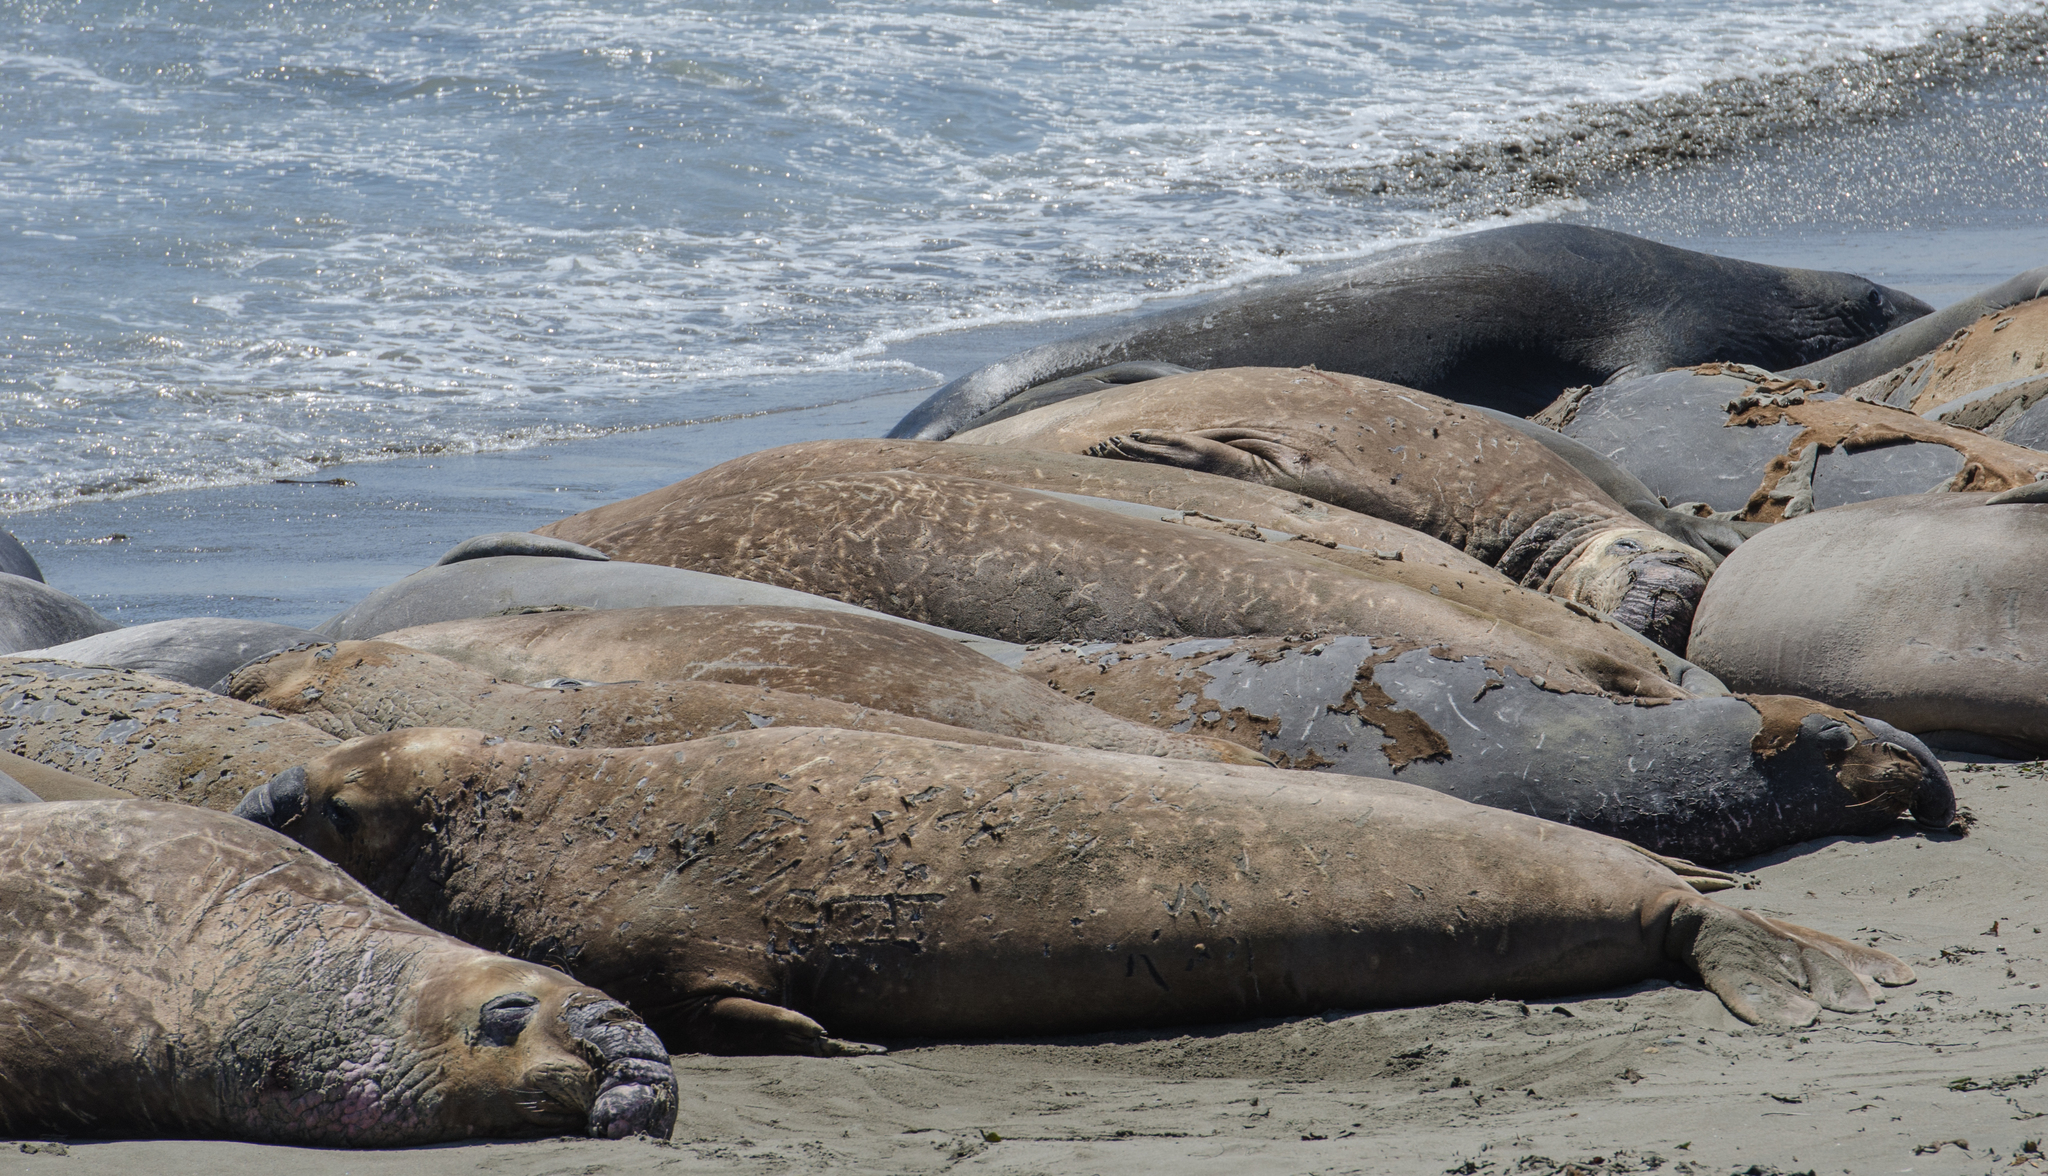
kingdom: Animalia
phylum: Chordata
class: Mammalia
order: Carnivora
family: Phocidae
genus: Mirounga
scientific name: Mirounga angustirostris
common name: Northern elephant seal
